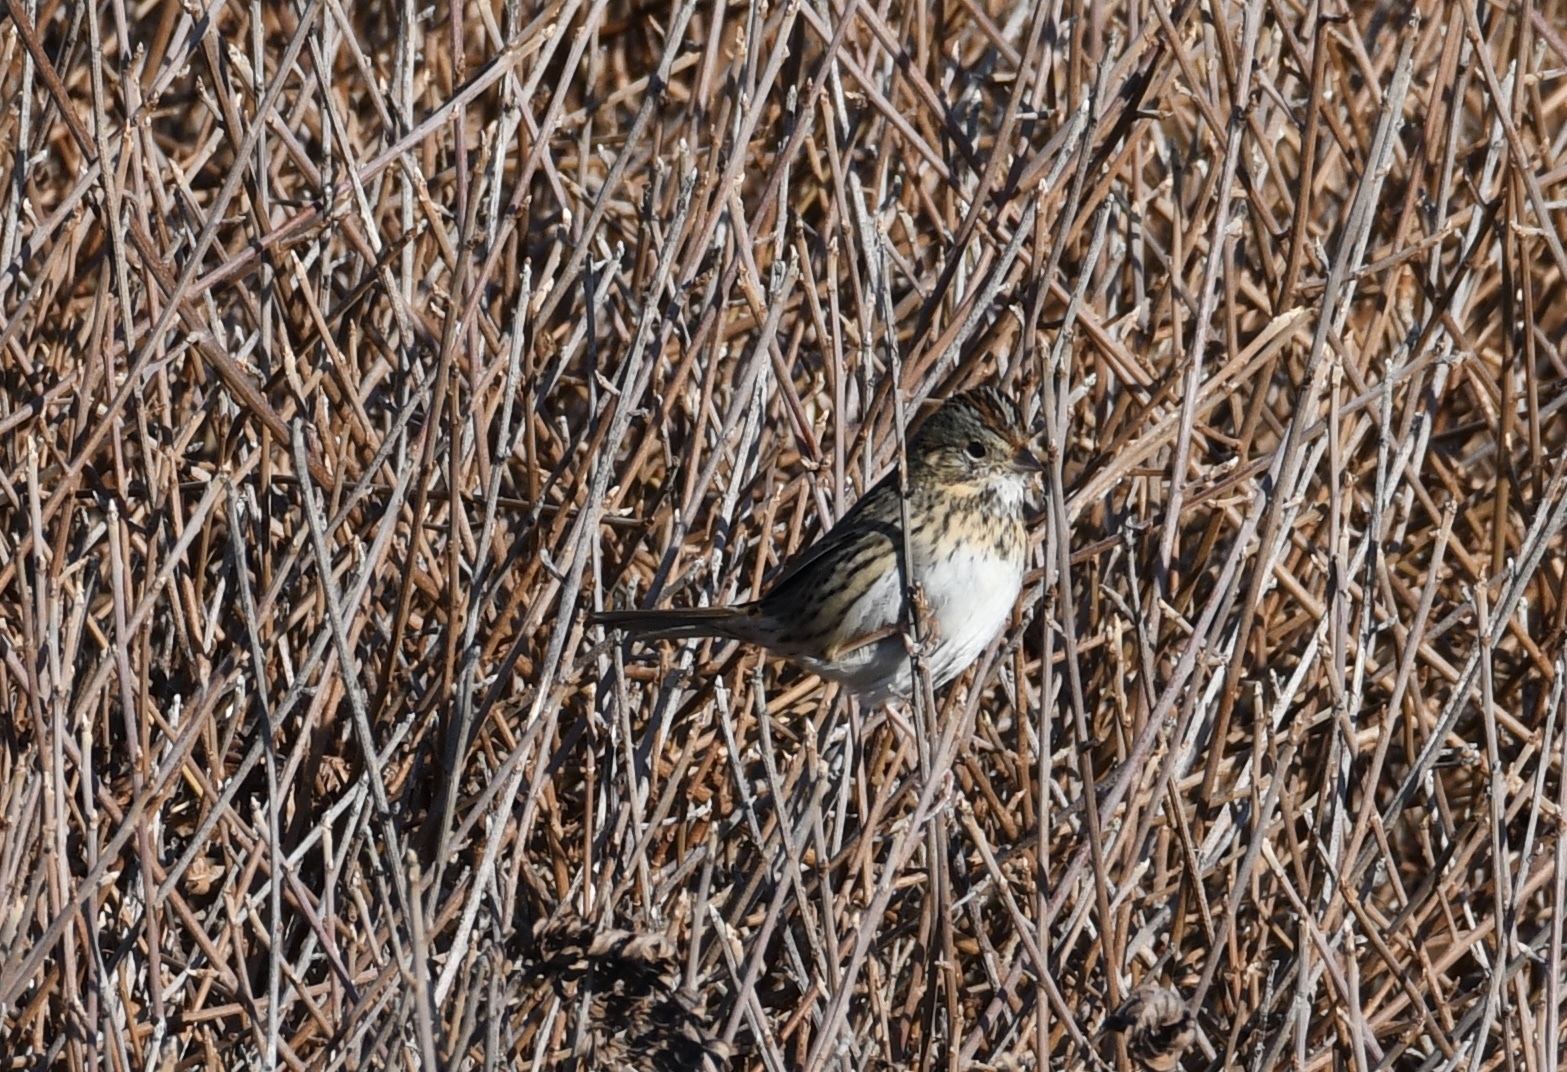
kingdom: Animalia
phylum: Chordata
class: Aves
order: Passeriformes
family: Passerellidae
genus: Melospiza
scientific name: Melospiza lincolnii
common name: Lincoln's sparrow
